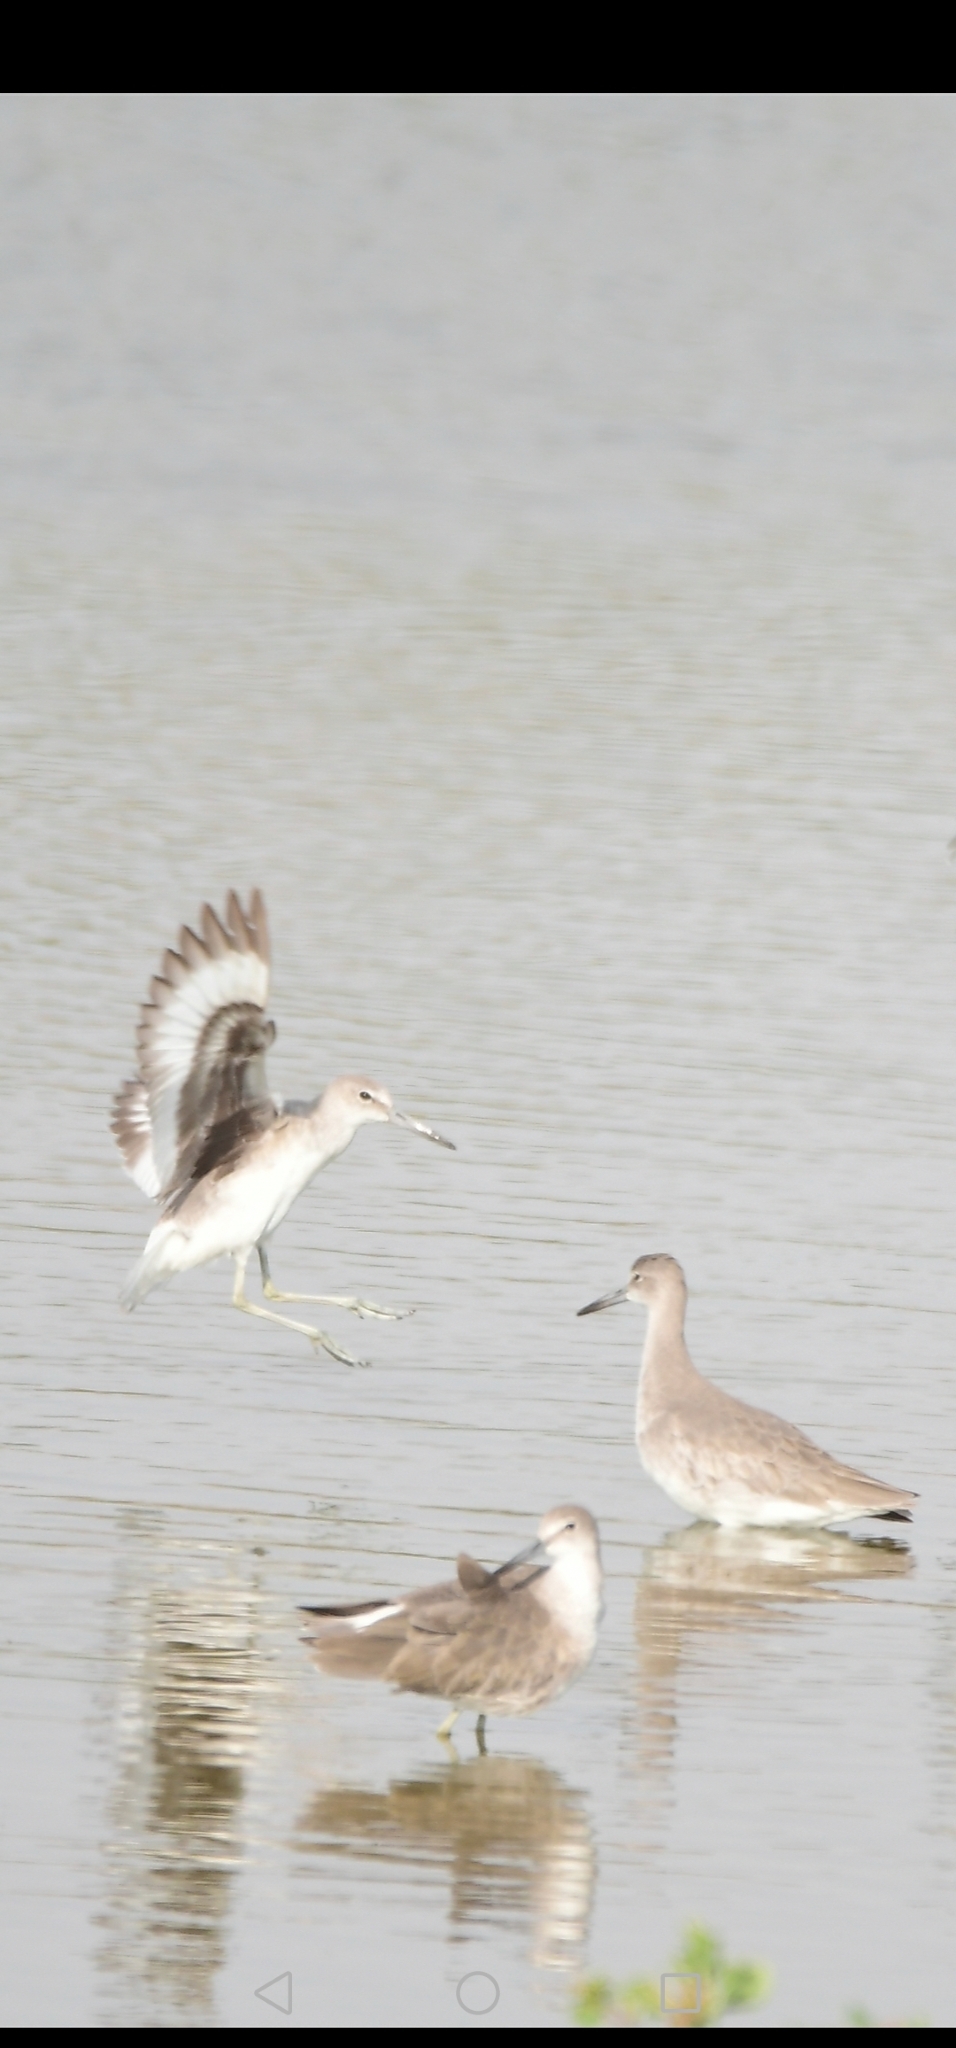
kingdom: Animalia
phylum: Chordata
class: Aves
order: Charadriiformes
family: Scolopacidae
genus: Tringa
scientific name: Tringa semipalmata
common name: Willet
